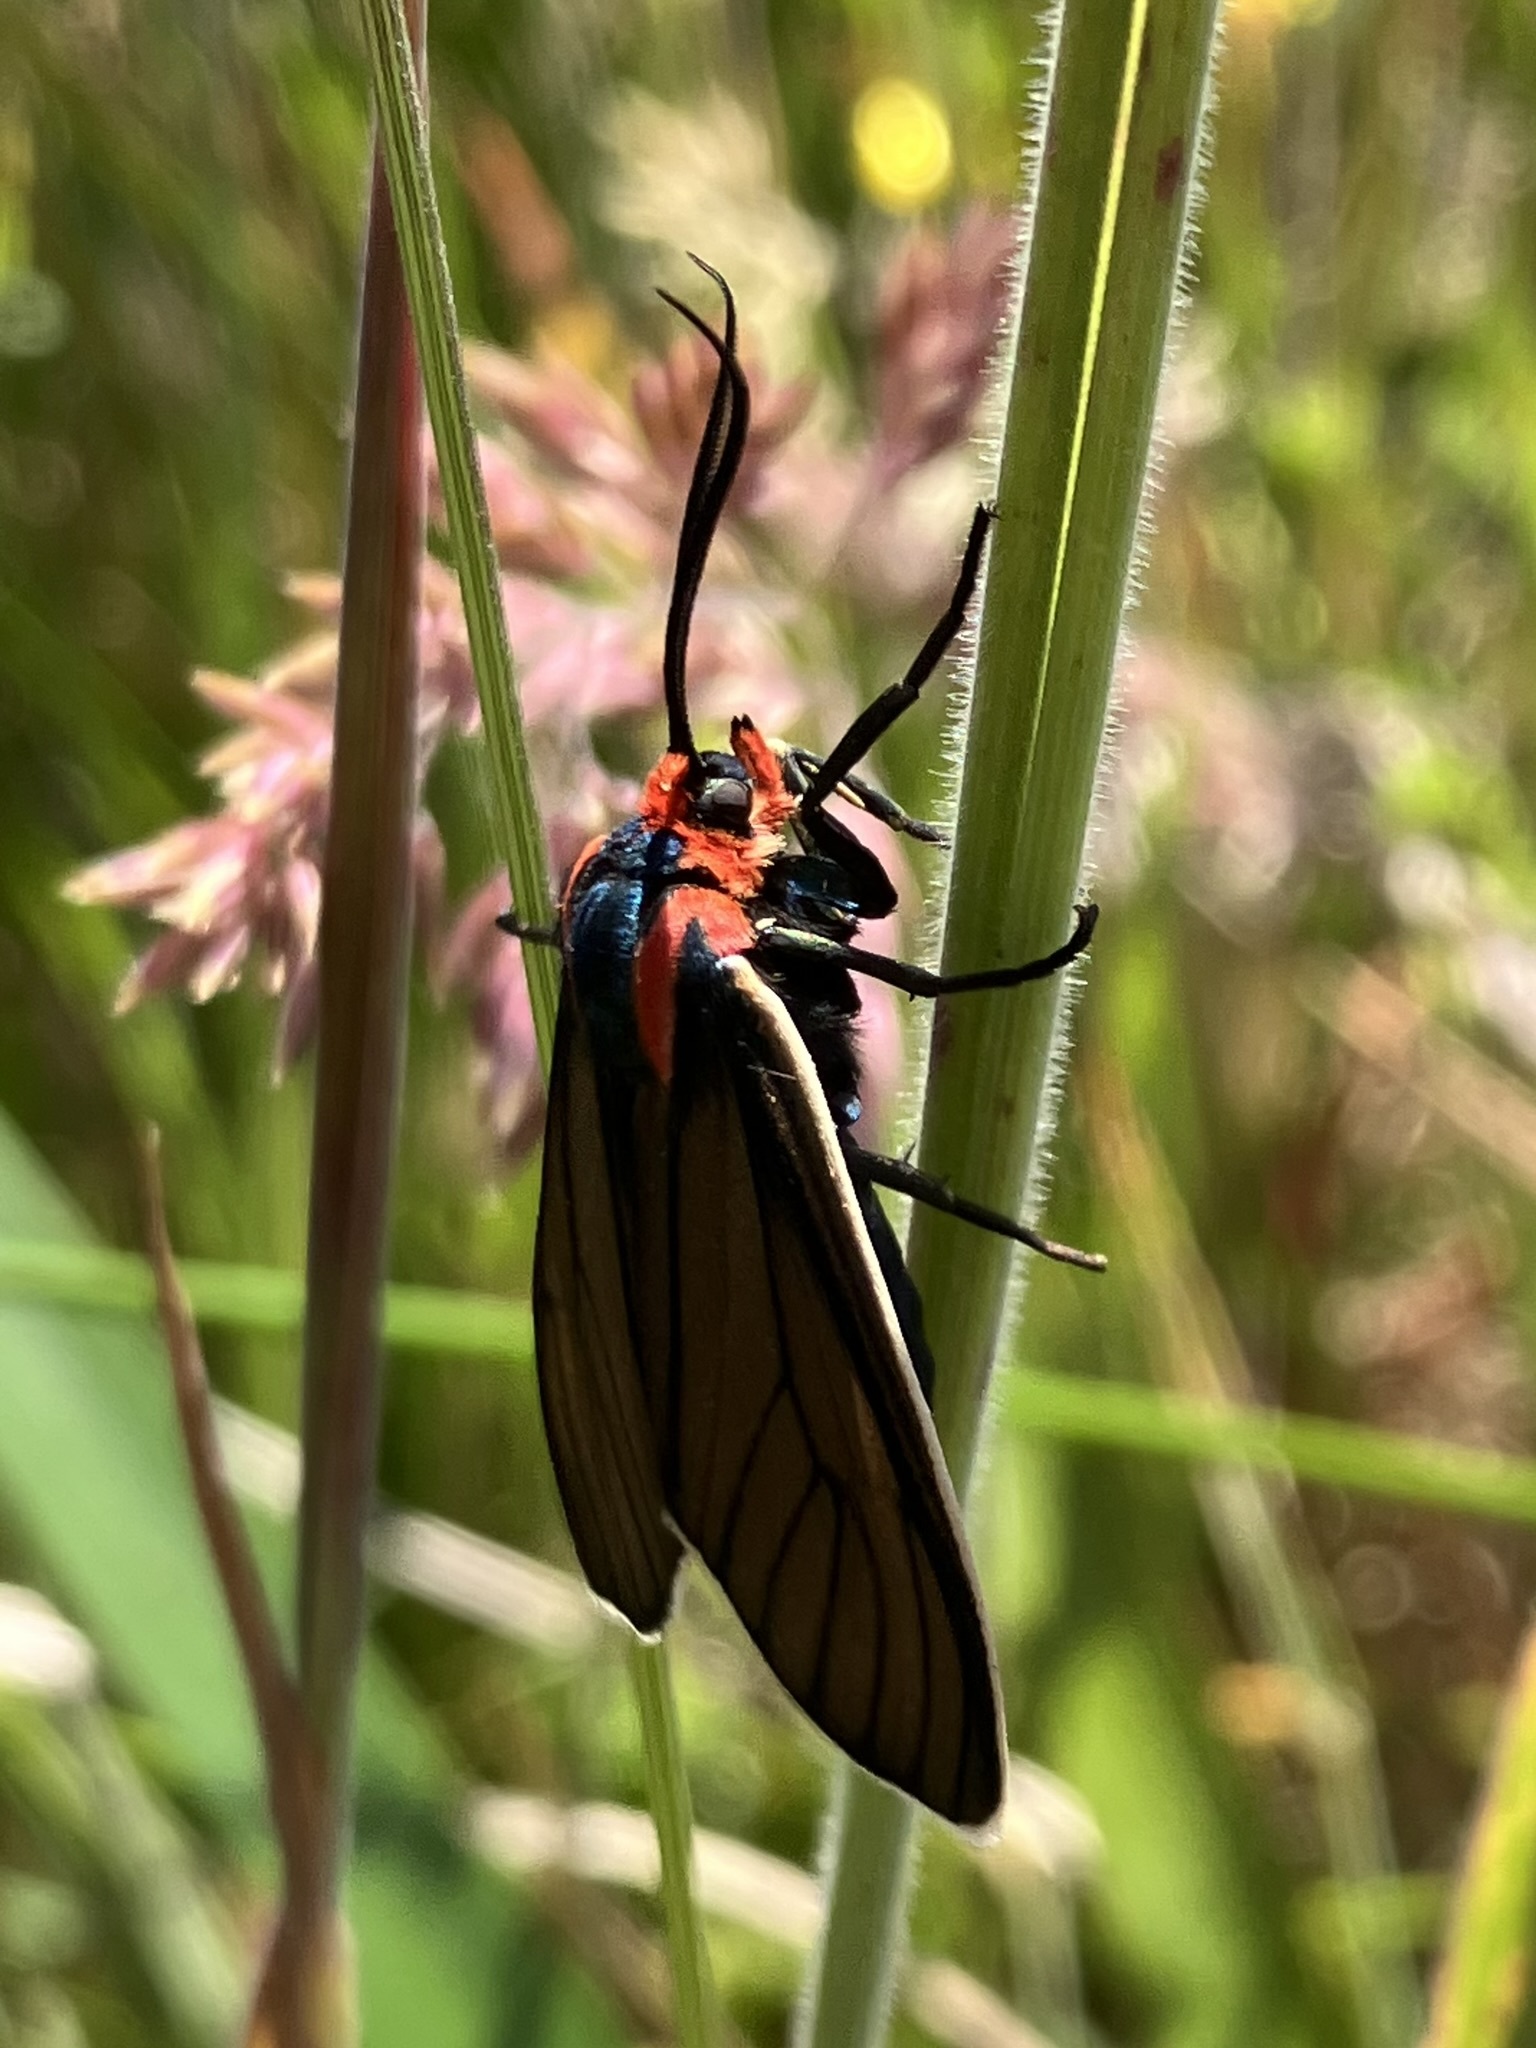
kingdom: Animalia
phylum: Arthropoda
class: Insecta
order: Lepidoptera
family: Erebidae
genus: Ctenucha
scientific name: Ctenucha brunnea
